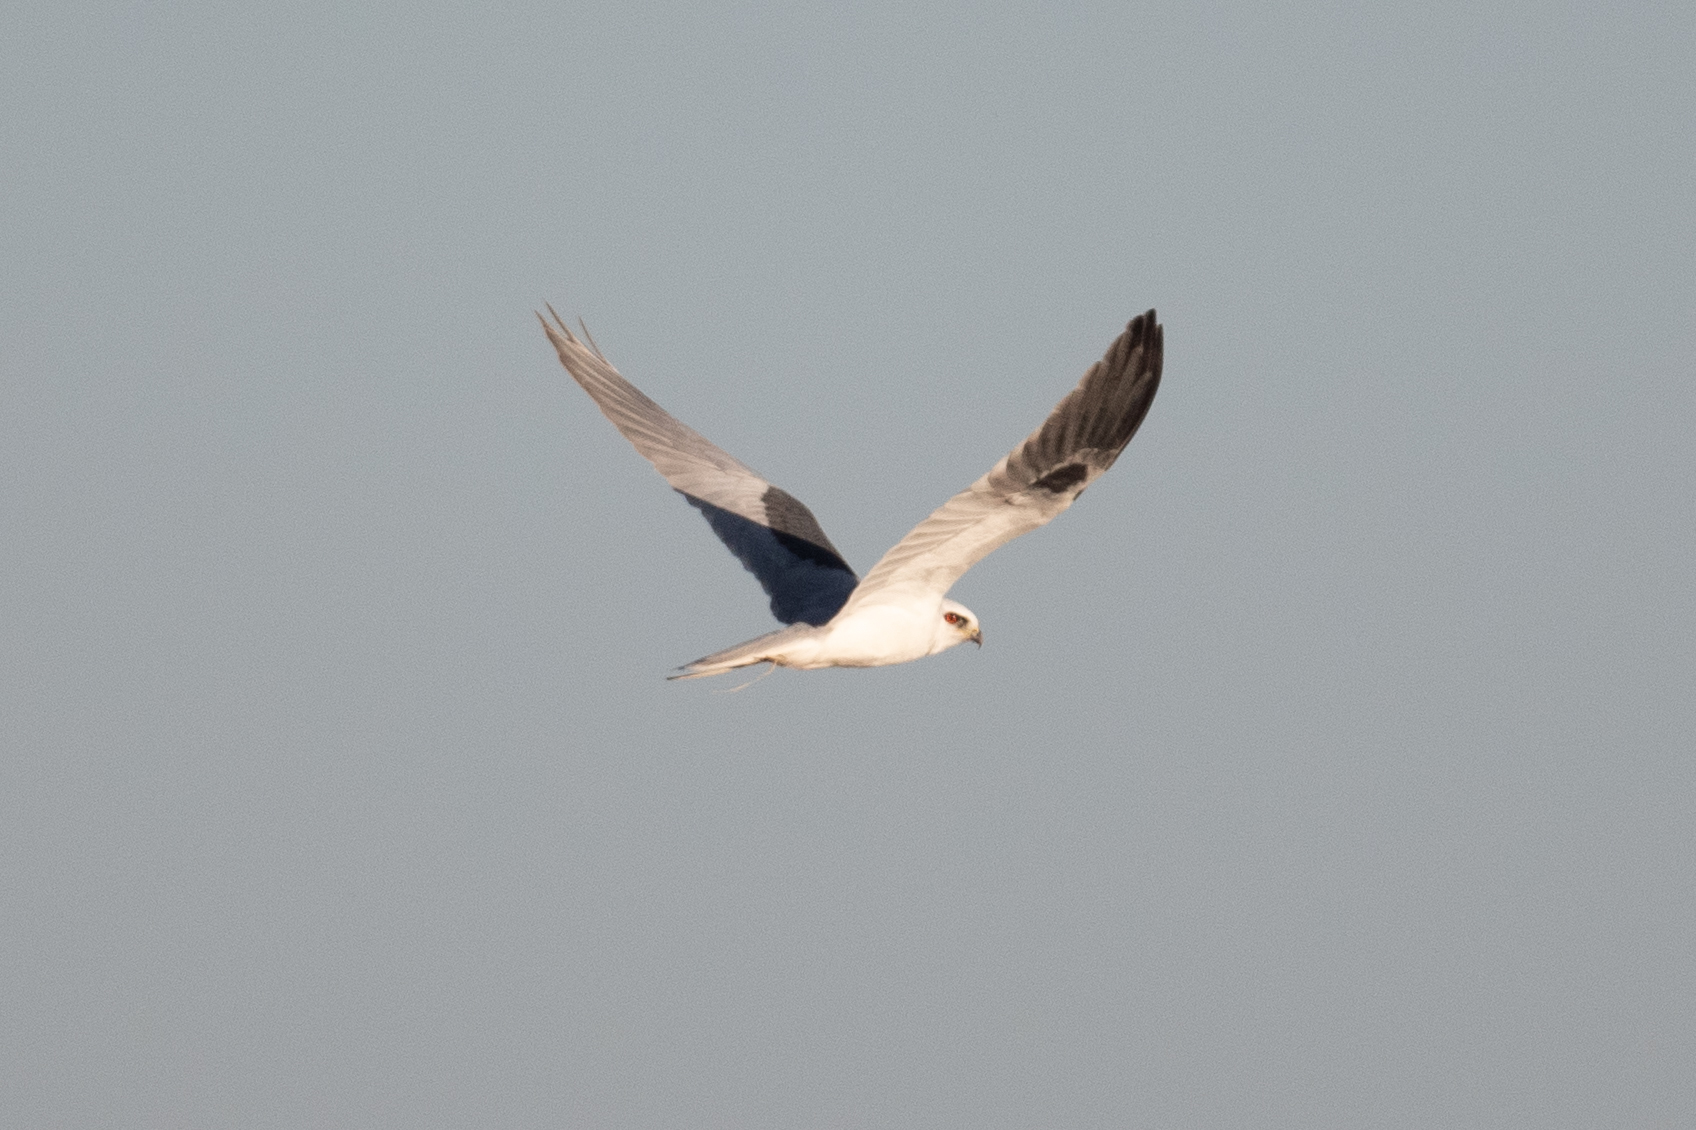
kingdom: Animalia
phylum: Chordata
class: Aves
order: Accipitriformes
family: Accipitridae
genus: Elanus
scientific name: Elanus leucurus
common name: White-tailed kite
